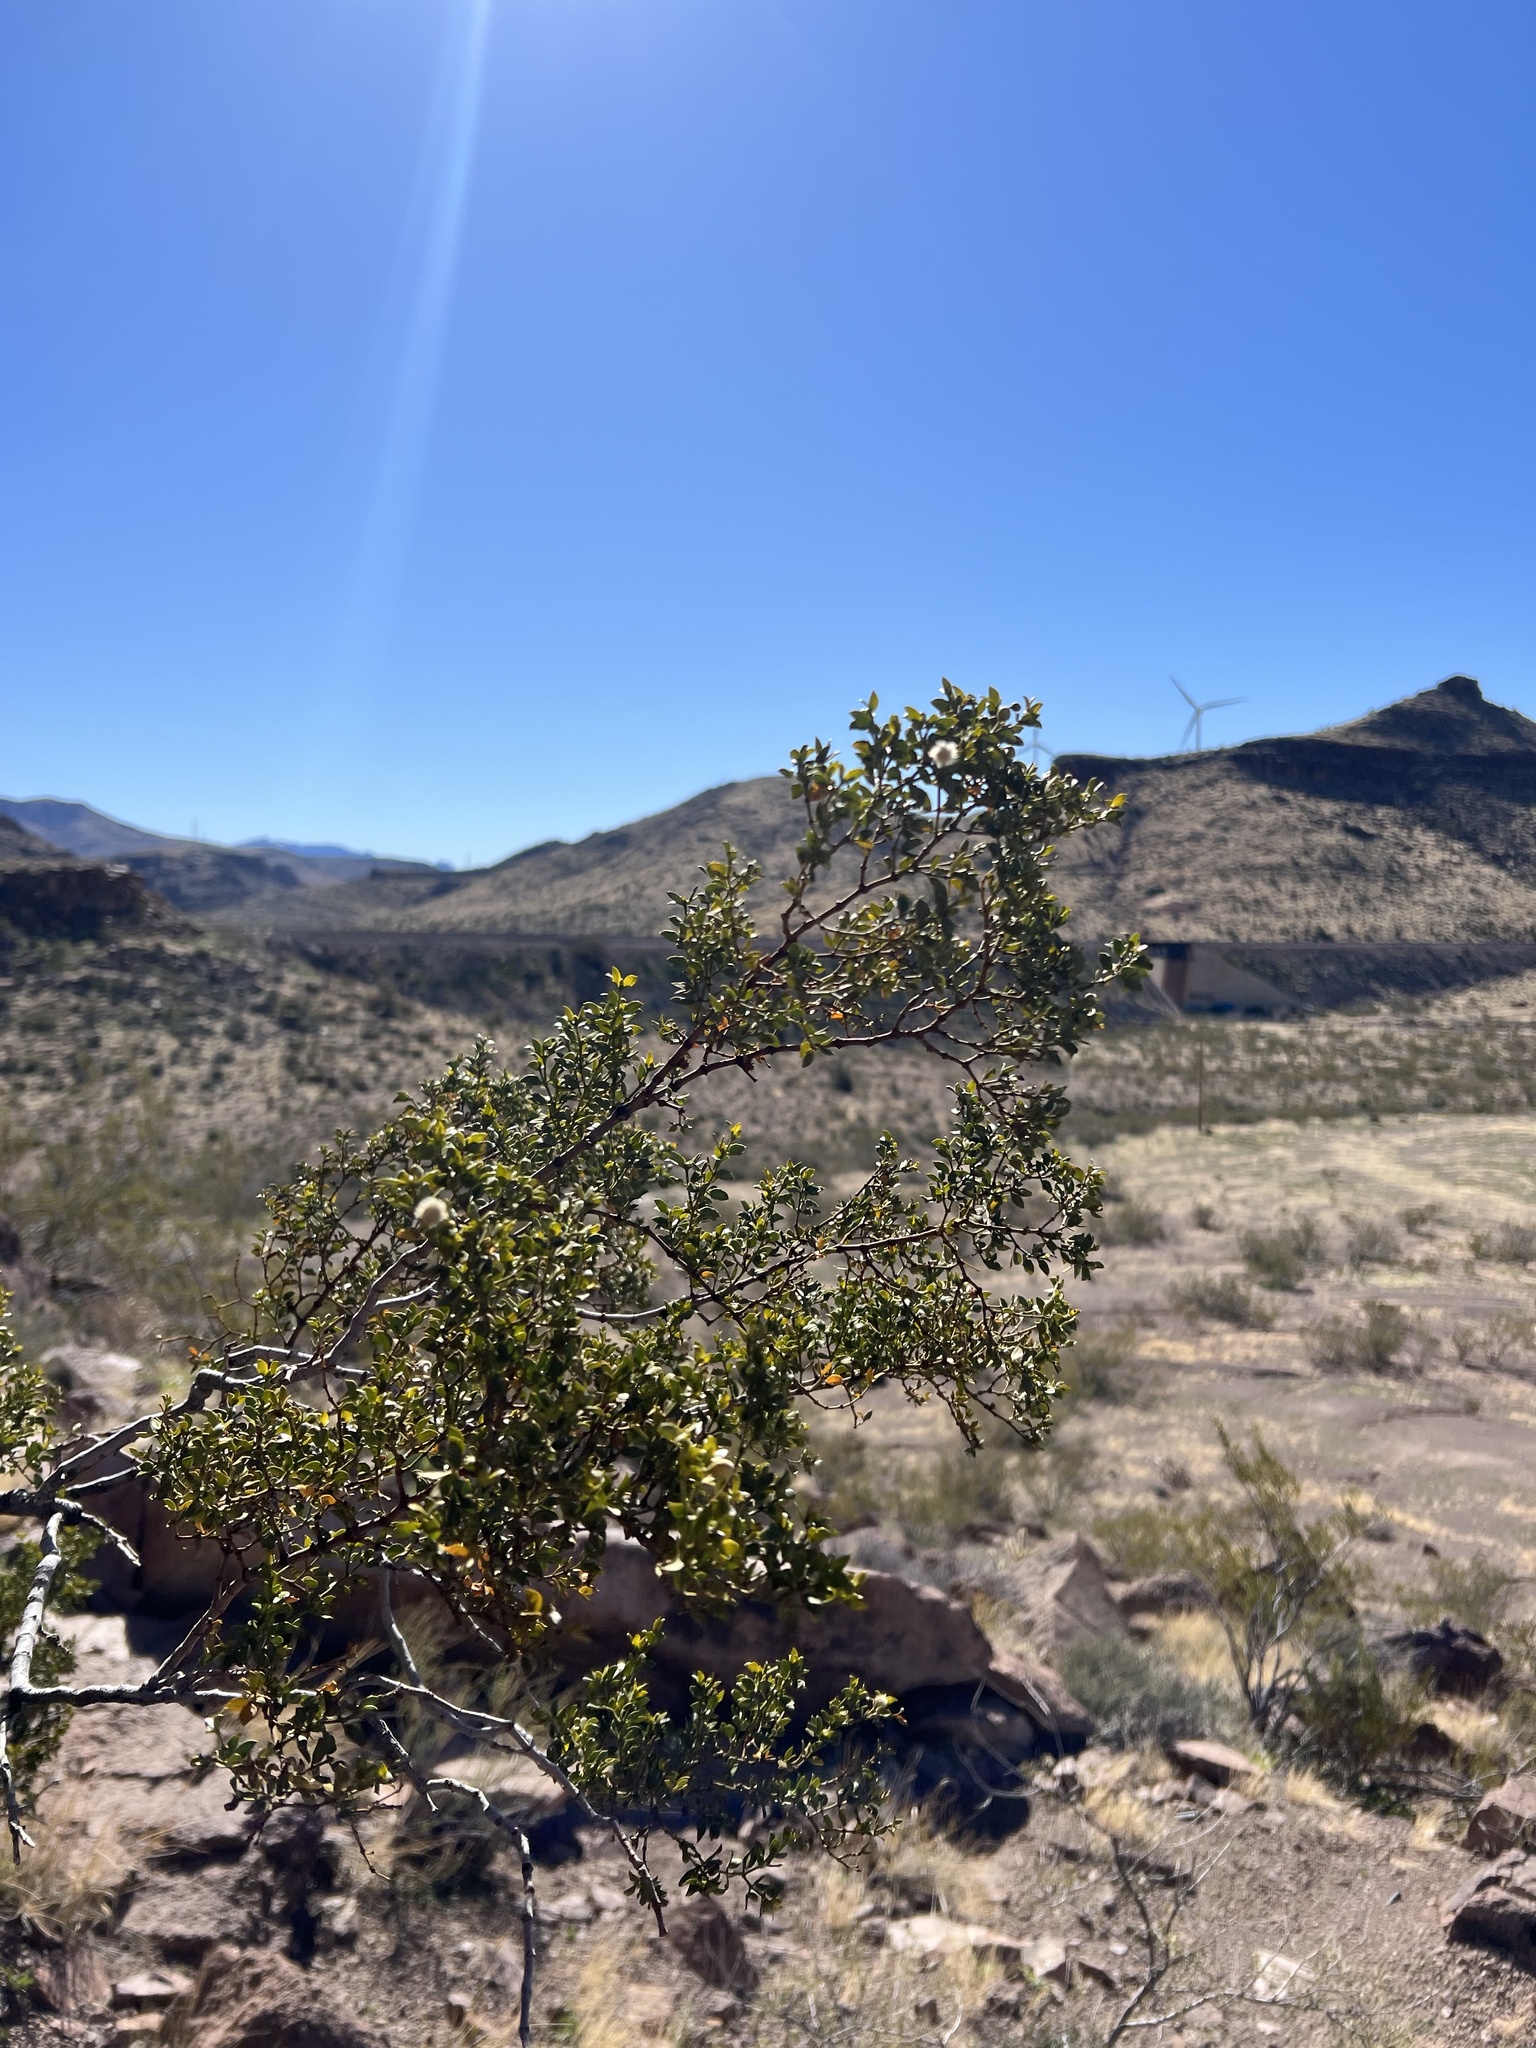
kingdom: Plantae
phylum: Tracheophyta
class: Magnoliopsida
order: Zygophyllales
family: Zygophyllaceae
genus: Larrea
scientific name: Larrea tridentata
